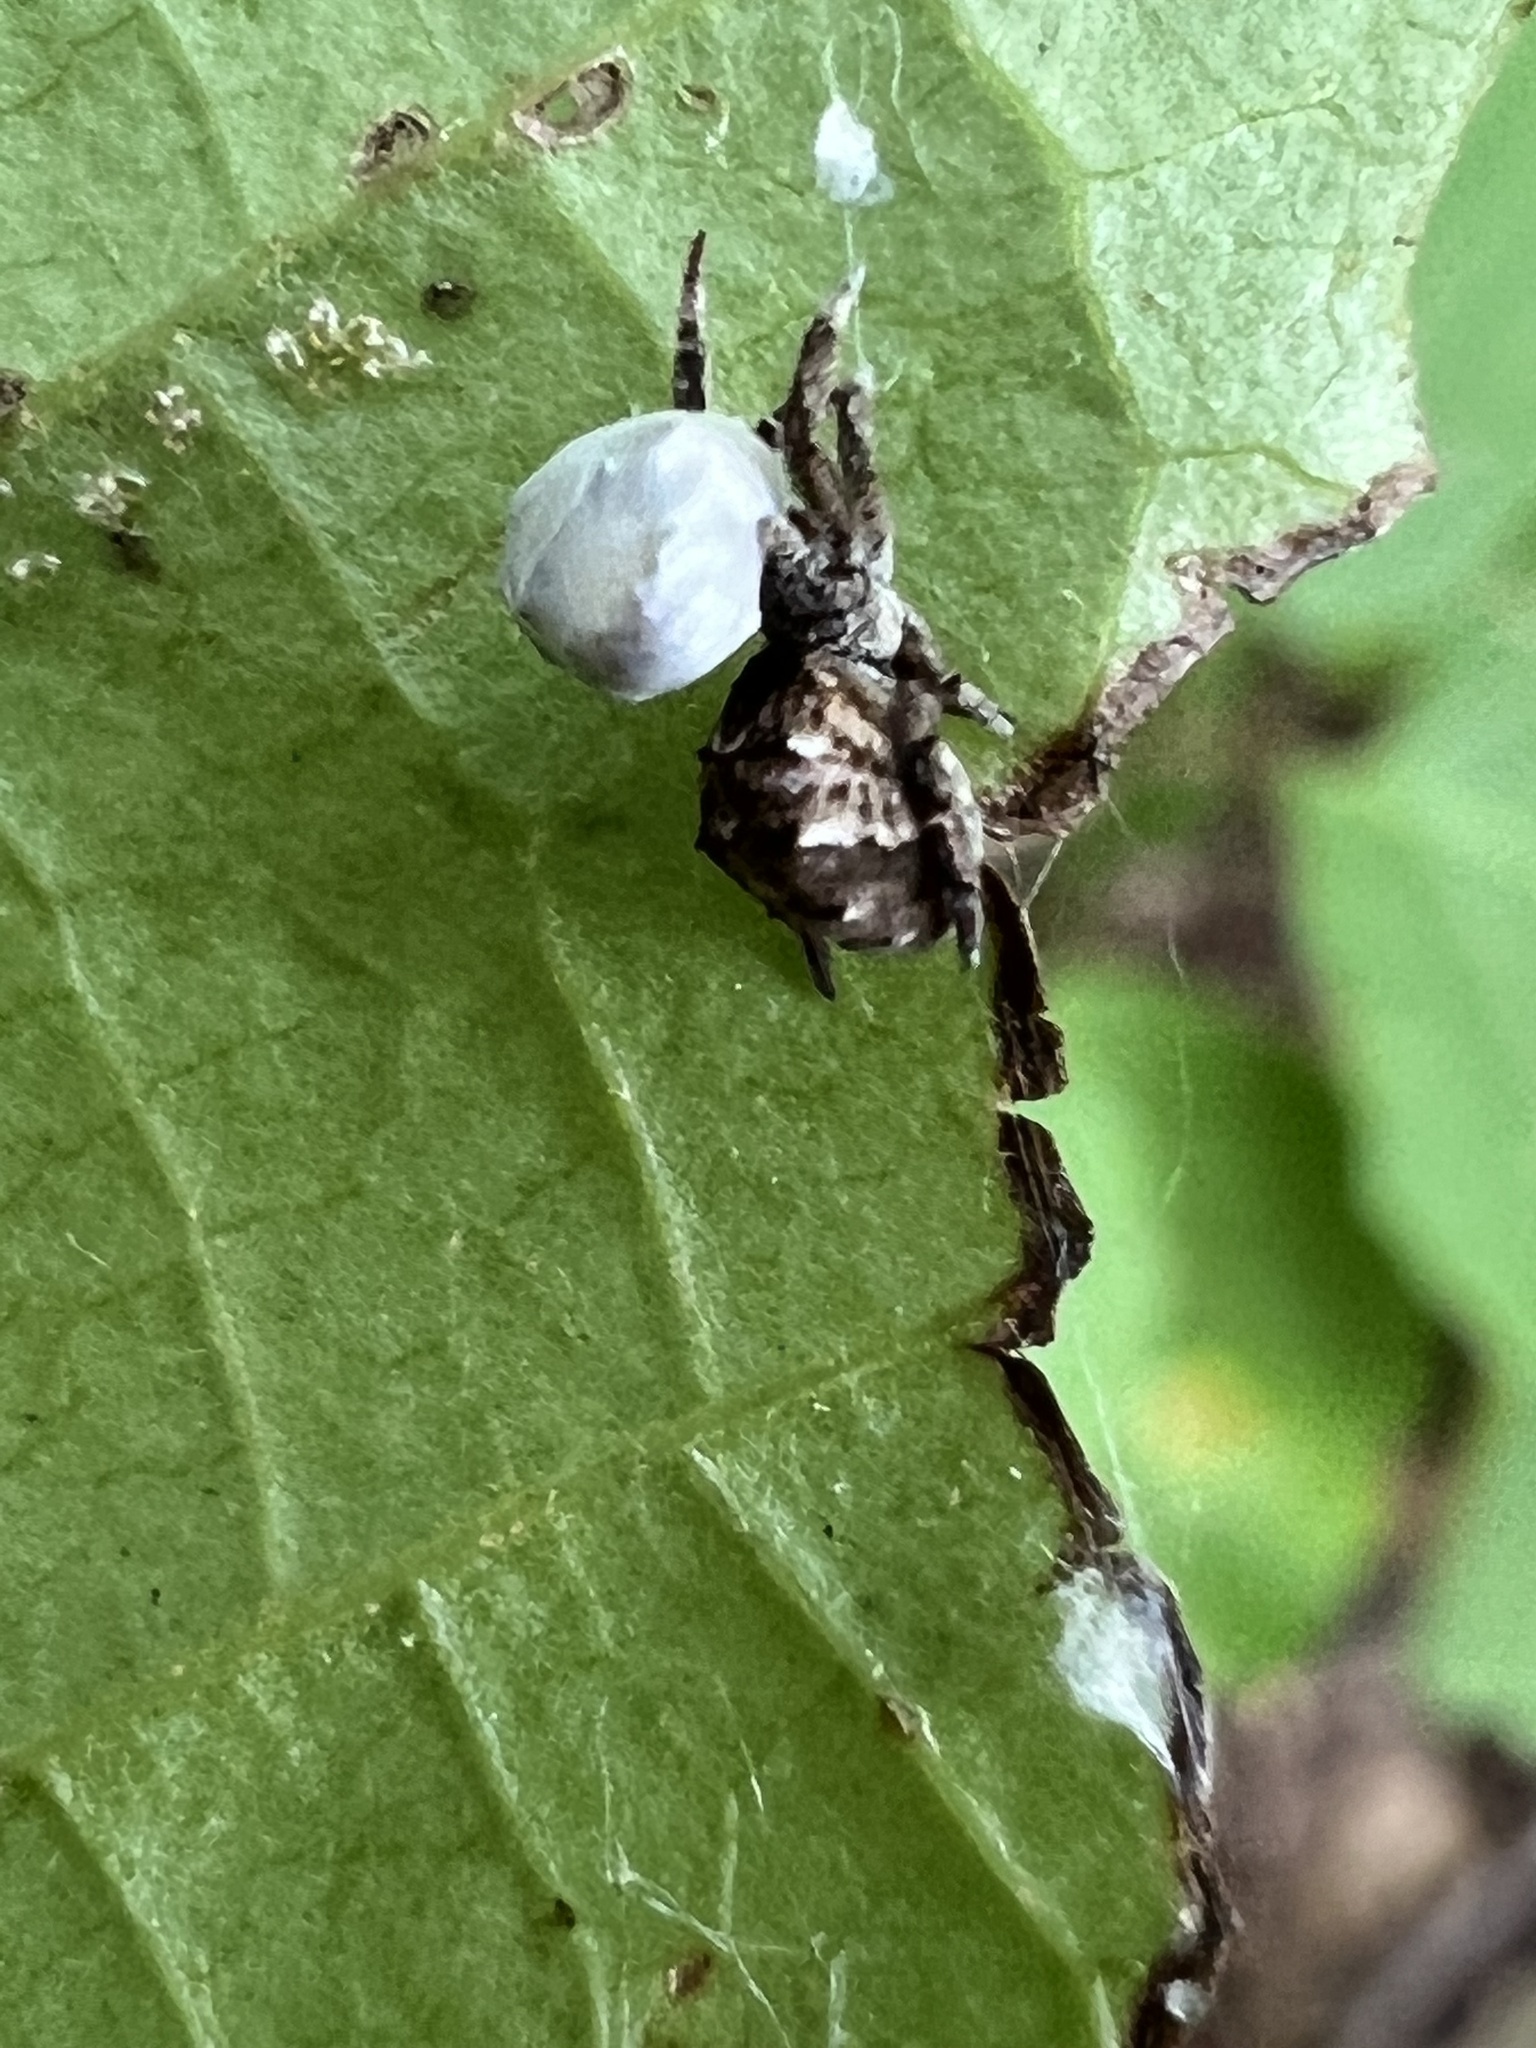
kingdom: Animalia
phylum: Arthropoda
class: Arachnida
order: Araneae
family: Uloboridae
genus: Hyptiotes
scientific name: Hyptiotes cavatus
